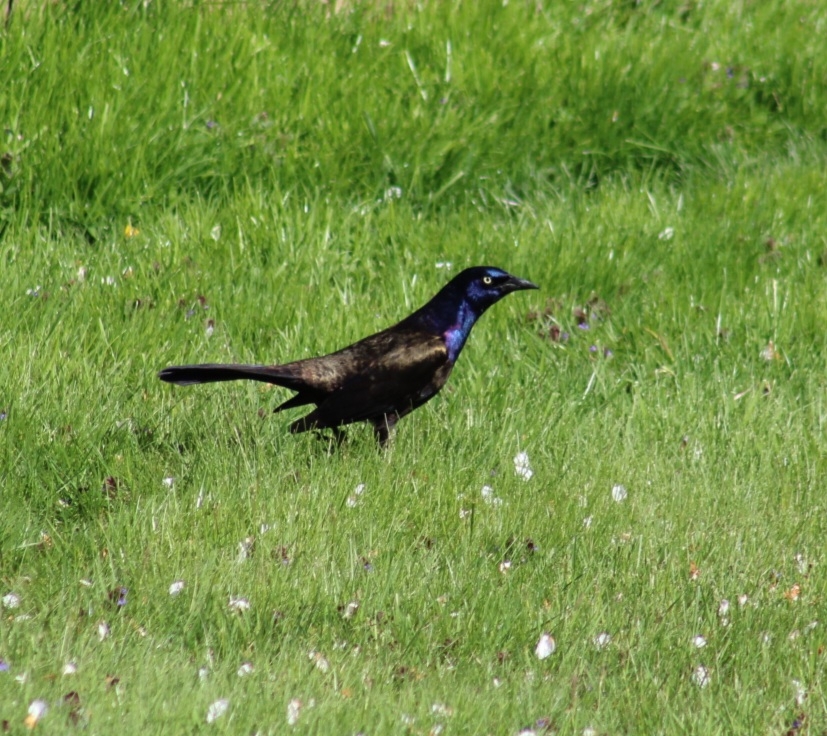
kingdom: Animalia
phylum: Chordata
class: Aves
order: Passeriformes
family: Icteridae
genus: Quiscalus
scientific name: Quiscalus quiscula
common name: Common grackle
